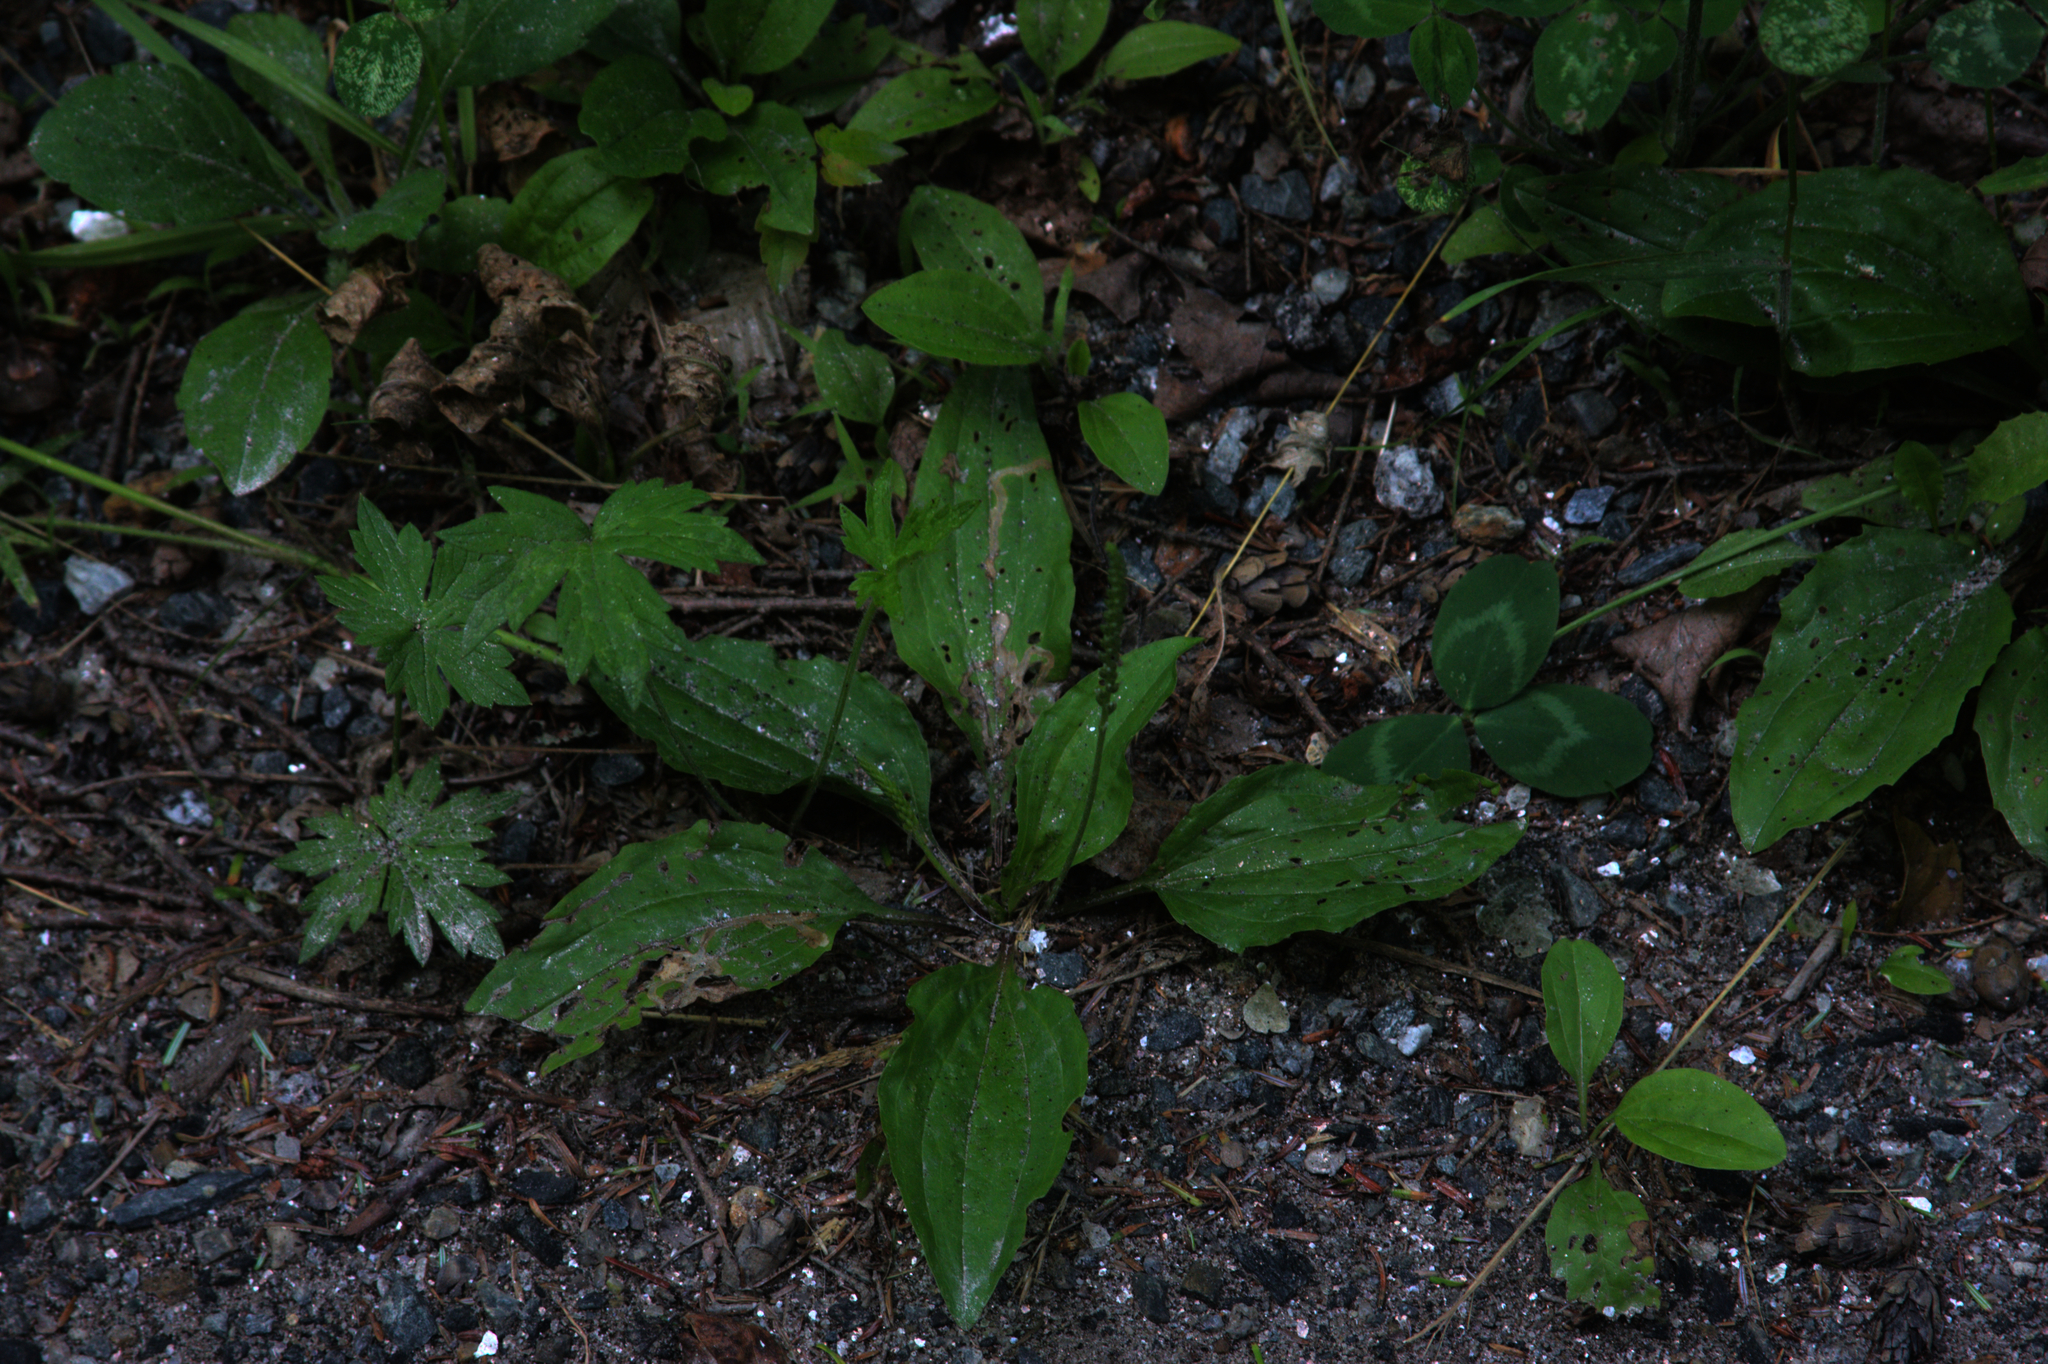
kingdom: Plantae
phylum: Tracheophyta
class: Magnoliopsida
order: Lamiales
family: Plantaginaceae
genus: Plantago
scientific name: Plantago rugelii
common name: American plantain
